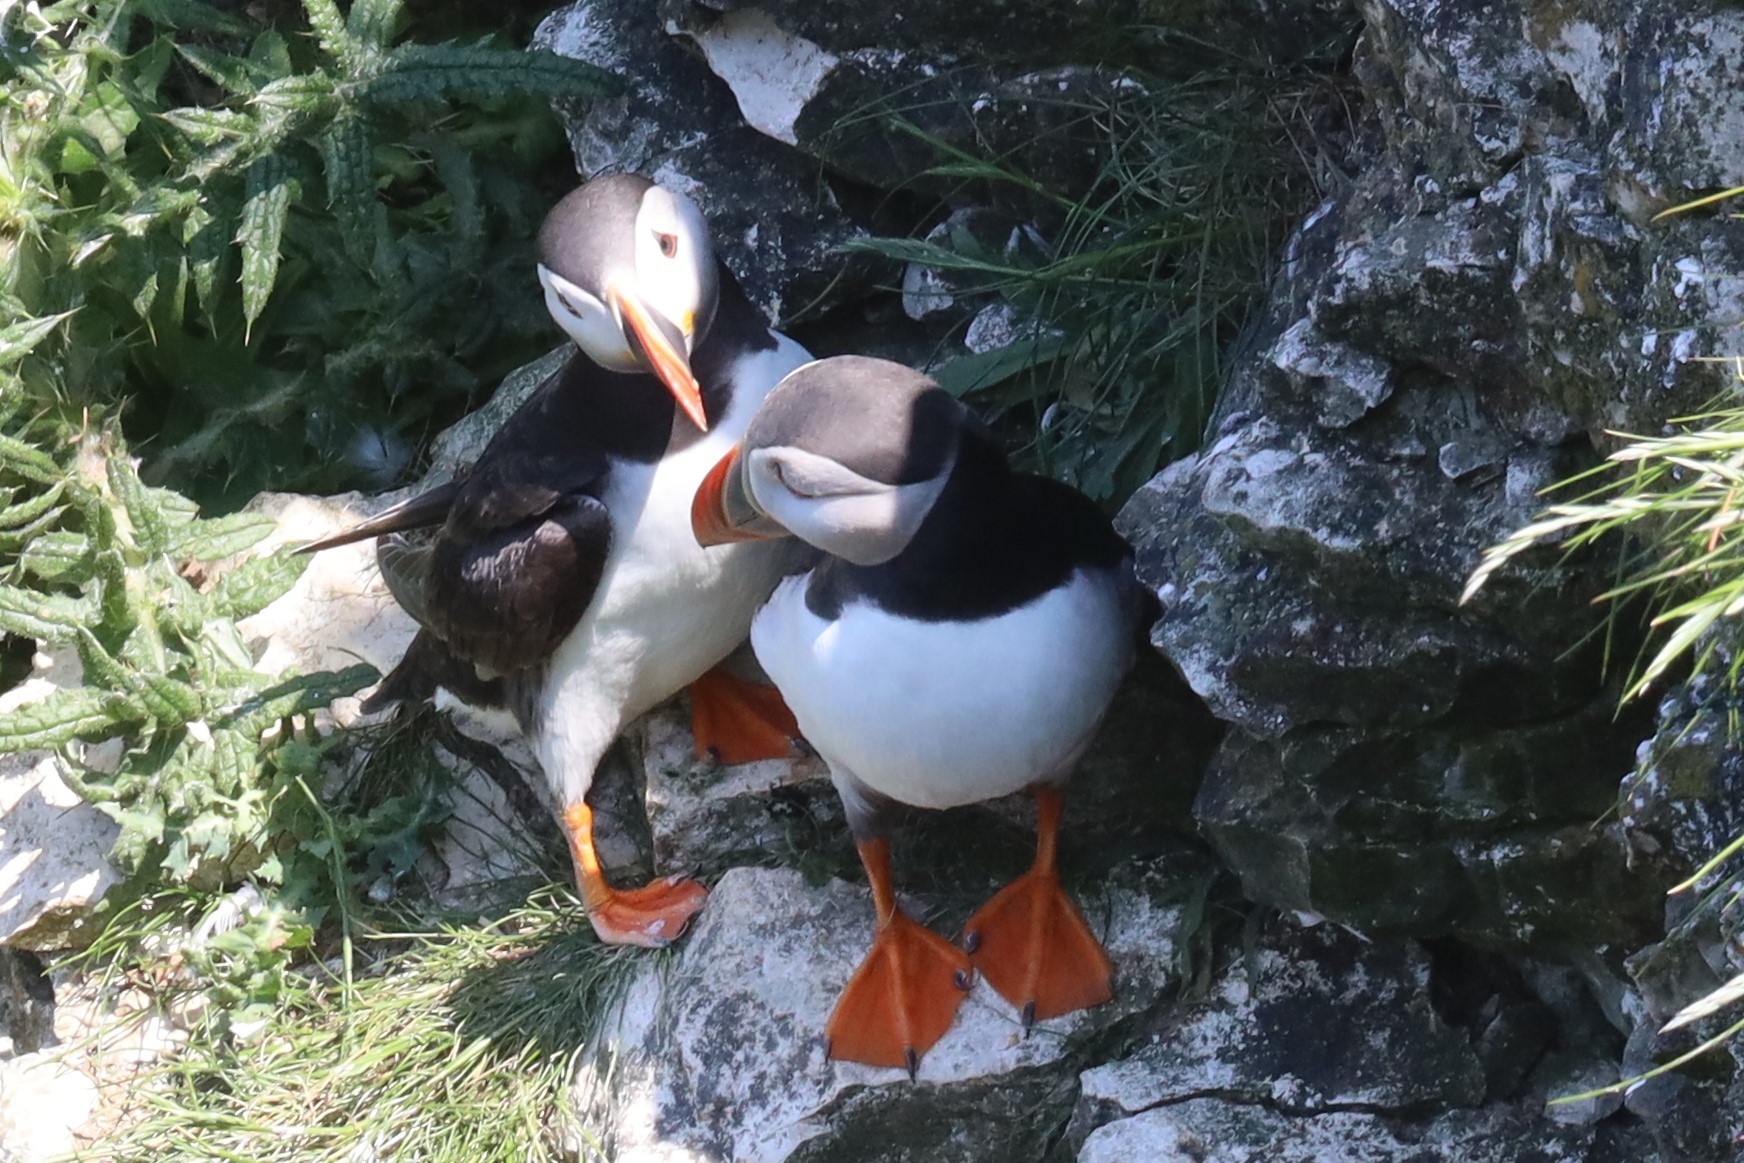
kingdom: Animalia
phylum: Chordata
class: Aves
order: Charadriiformes
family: Alcidae
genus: Fratercula
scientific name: Fratercula arctica
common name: Atlantic puffin
